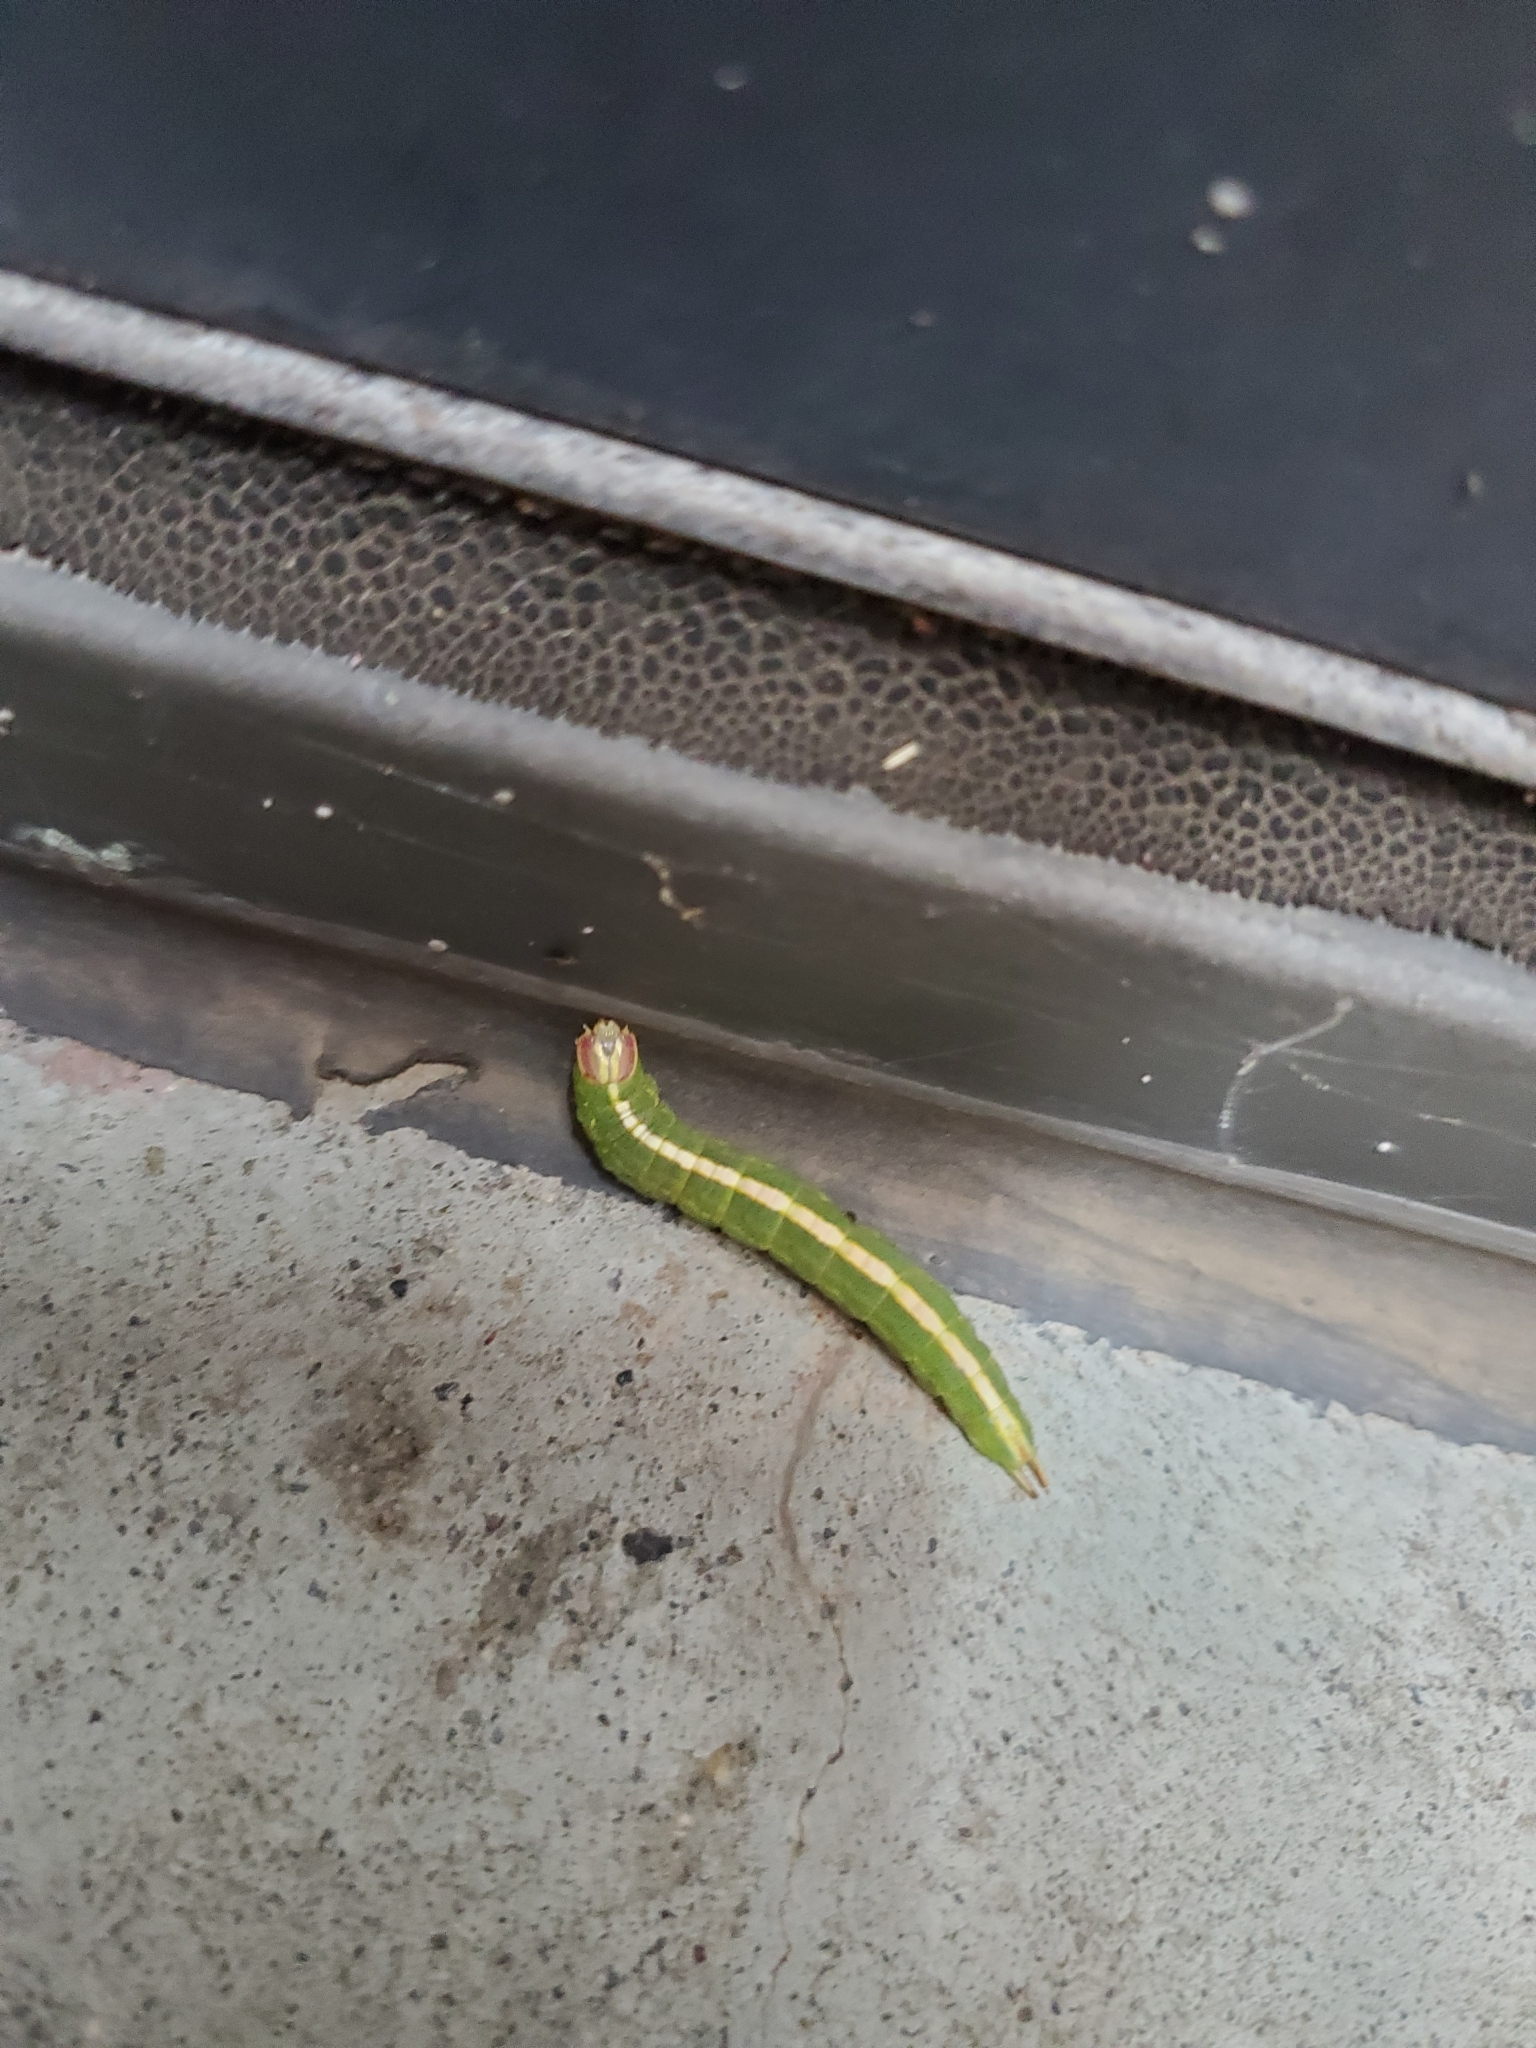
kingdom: Animalia
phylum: Arthropoda
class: Insecta
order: Lepidoptera
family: Notodontidae
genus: Misogada
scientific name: Misogada unicolor
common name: Drab prominent
